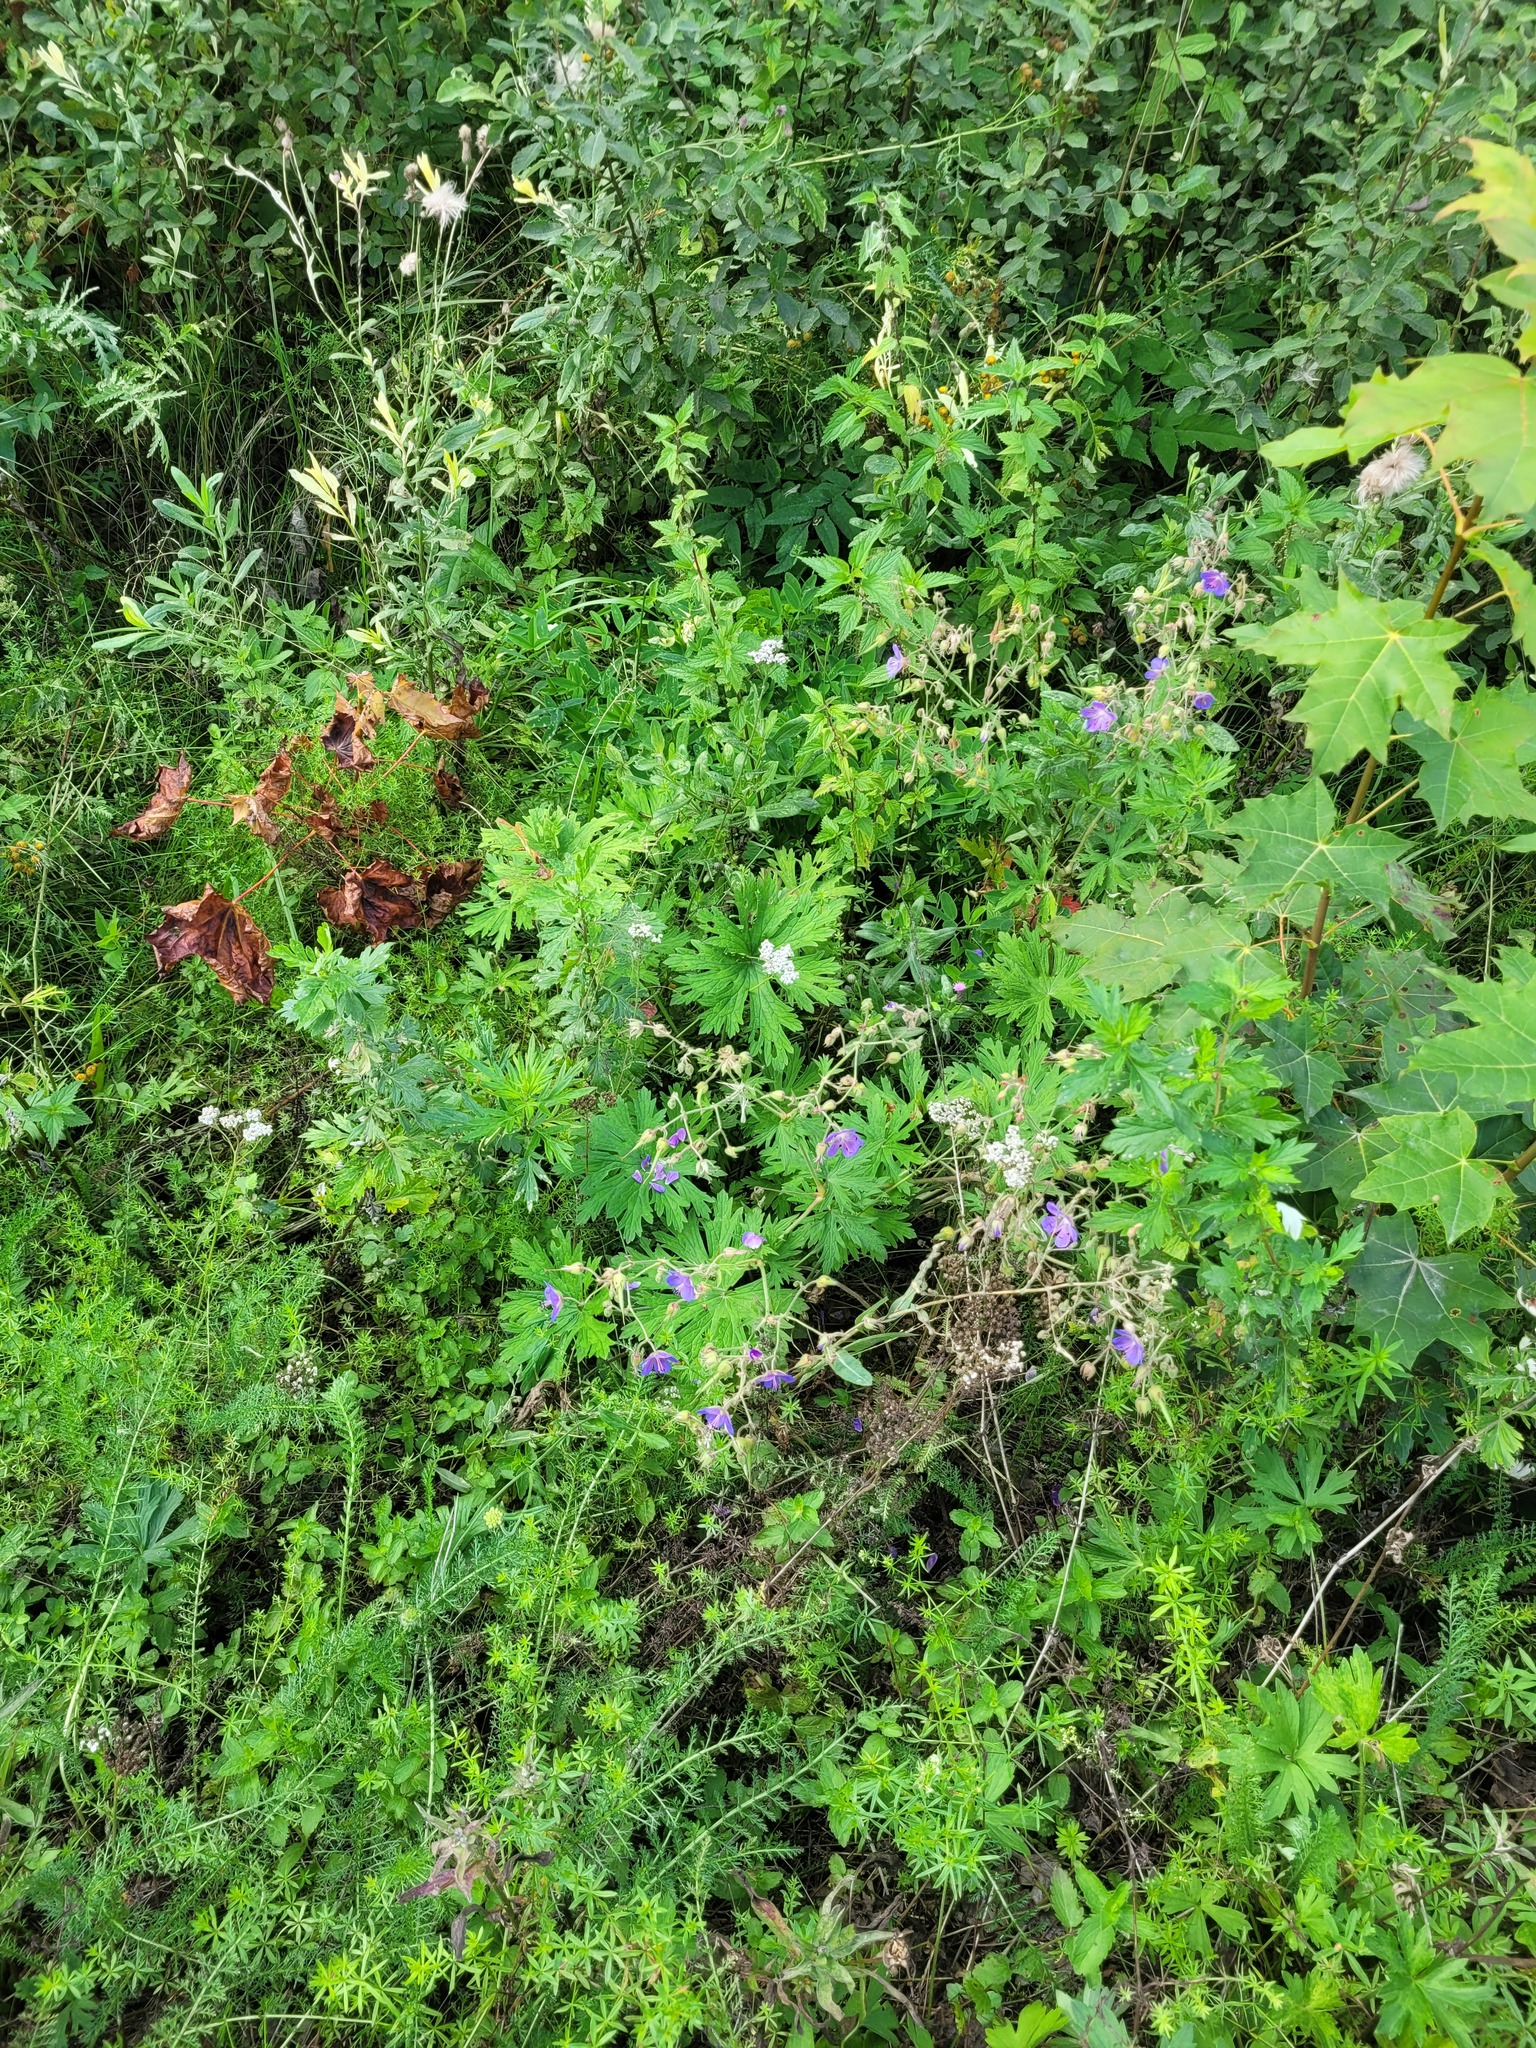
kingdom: Plantae
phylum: Tracheophyta
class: Magnoliopsida
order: Geraniales
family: Geraniaceae
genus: Geranium
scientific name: Geranium pratense
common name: Meadow crane's-bill
